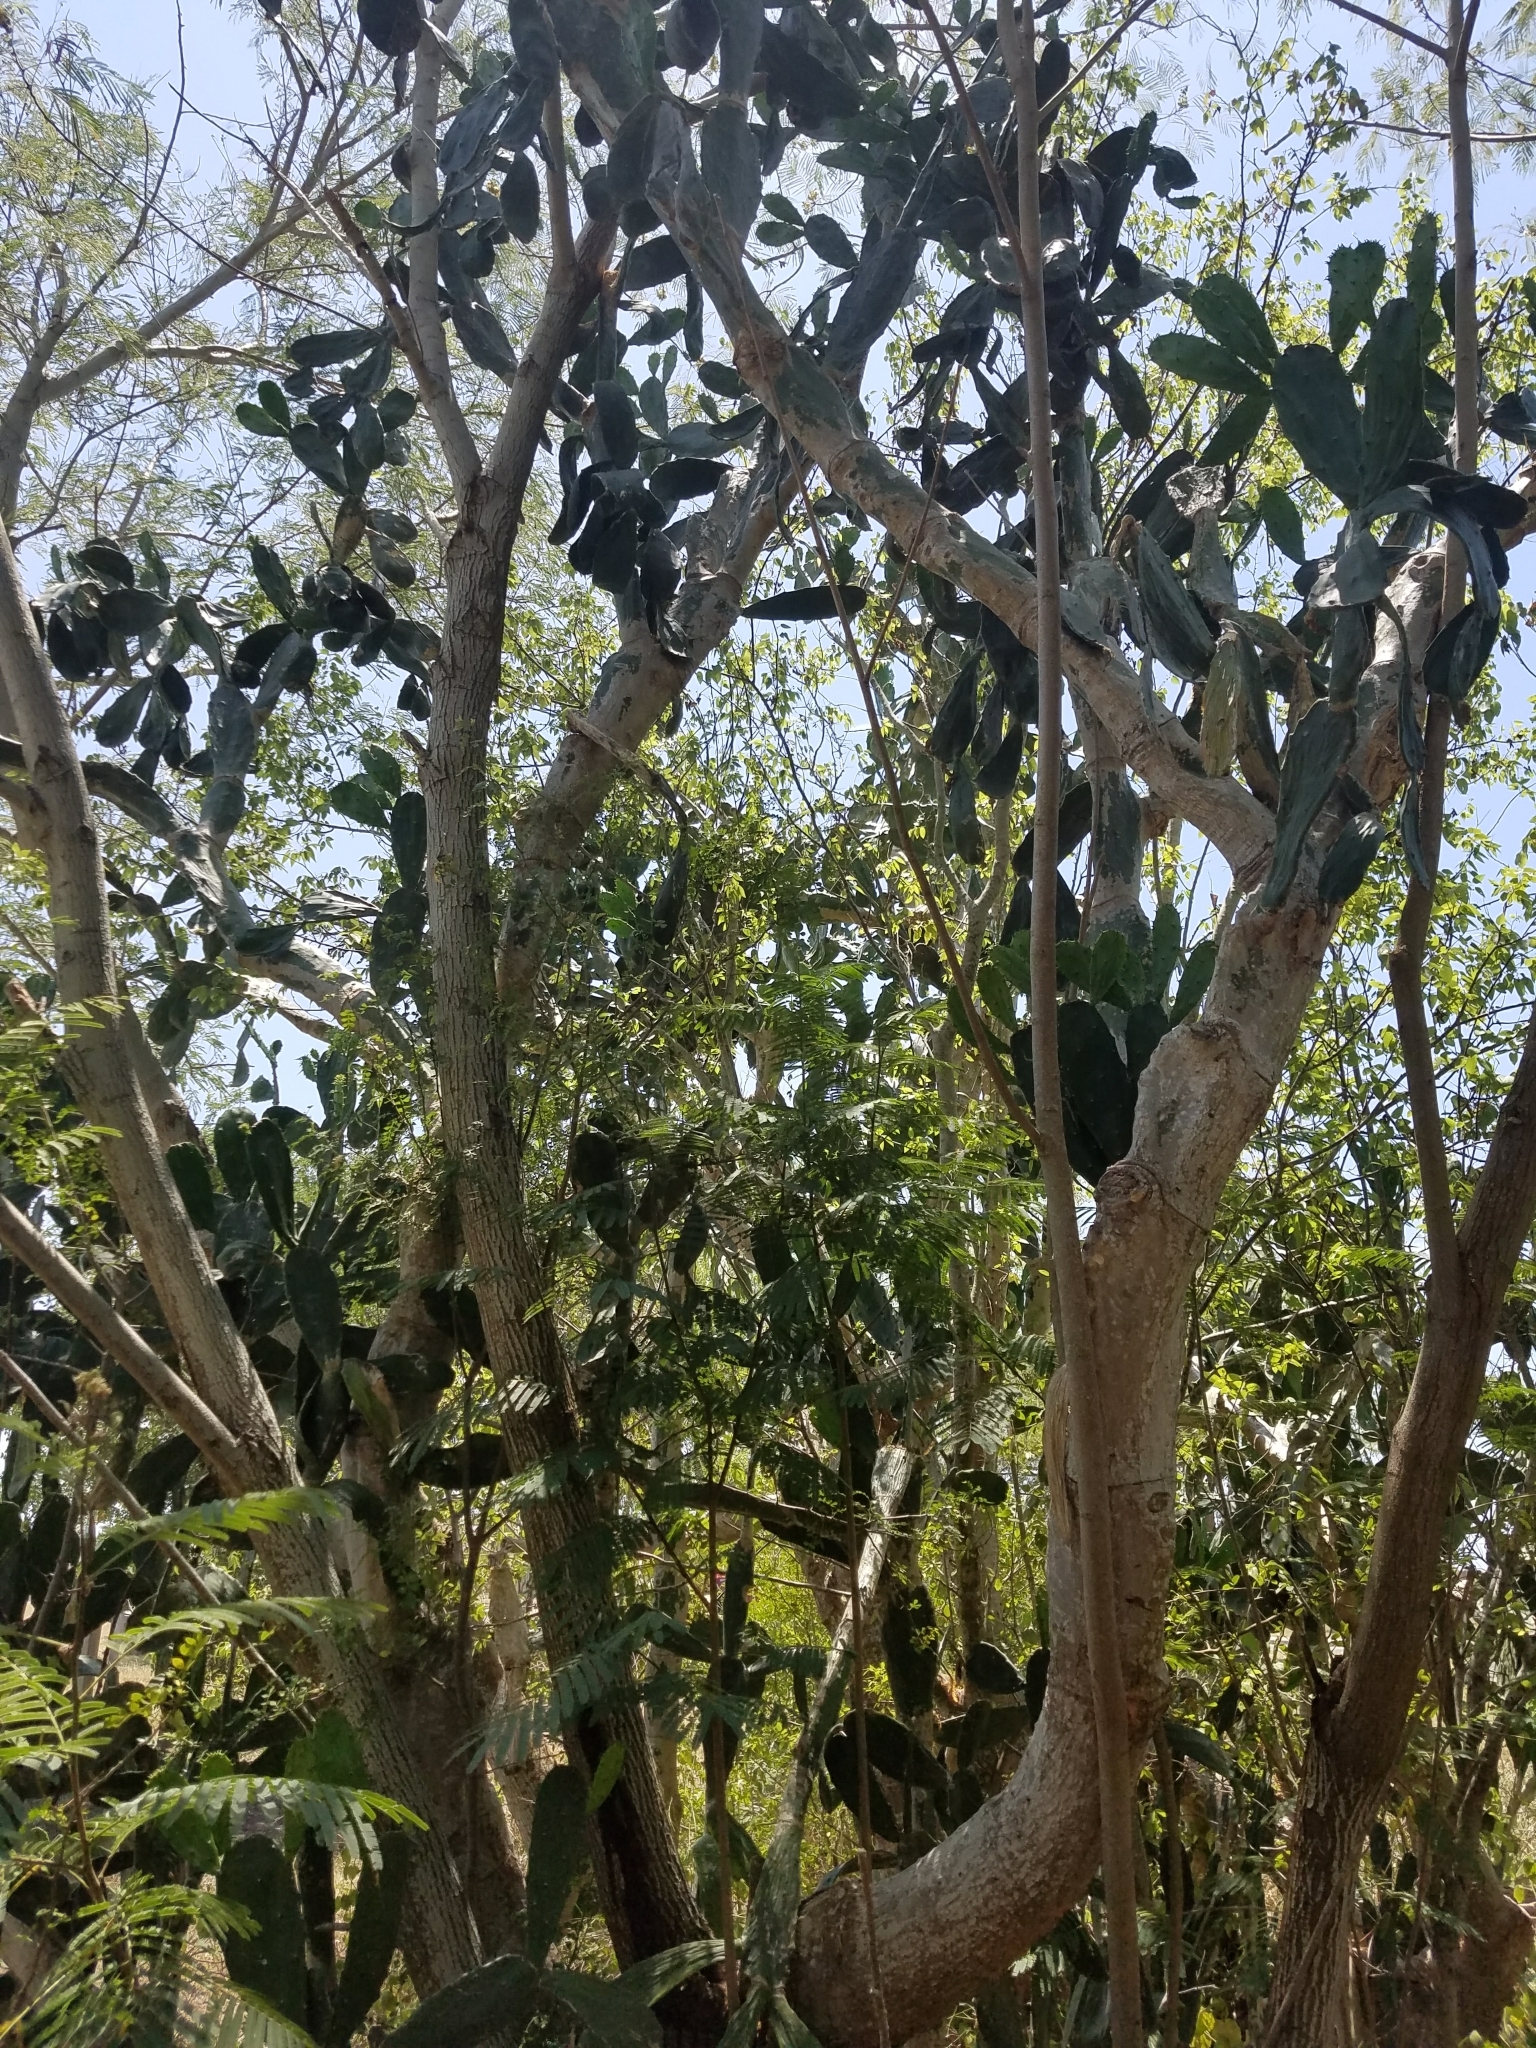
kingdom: Plantae
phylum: Tracheophyta
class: Magnoliopsida
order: Caryophyllales
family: Cactaceae
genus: Opuntia
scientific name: Opuntia cochenillifera
